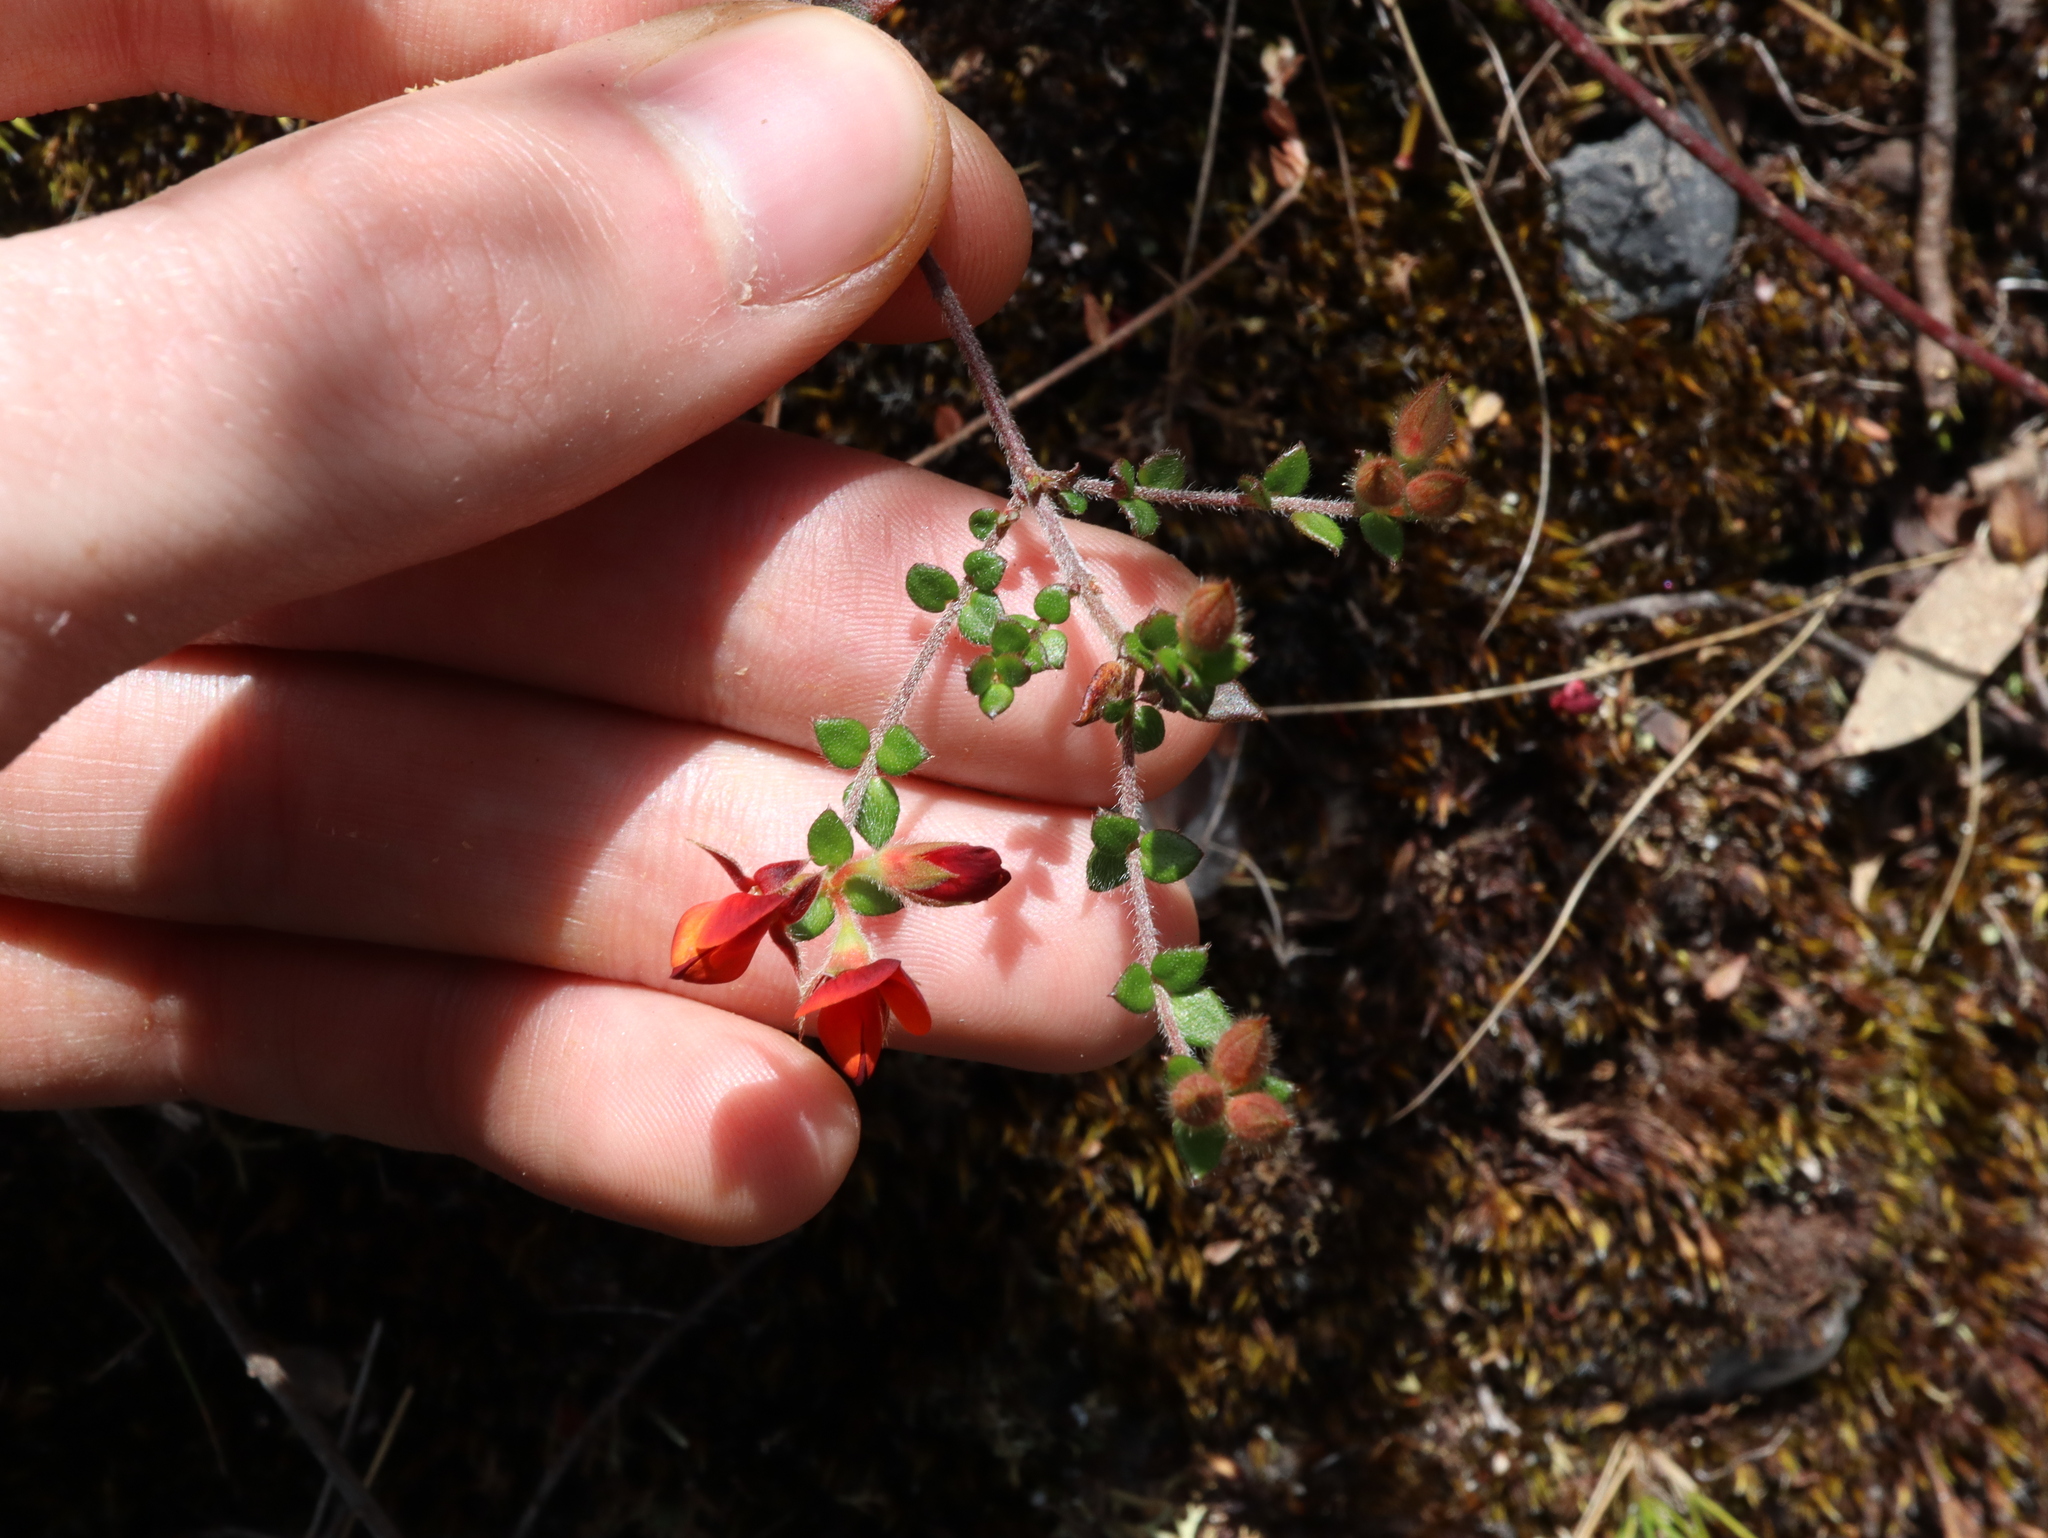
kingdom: Plantae
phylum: Tracheophyta
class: Magnoliopsida
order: Fabales
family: Fabaceae
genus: Oxylobium
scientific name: Oxylobium cordifolium
